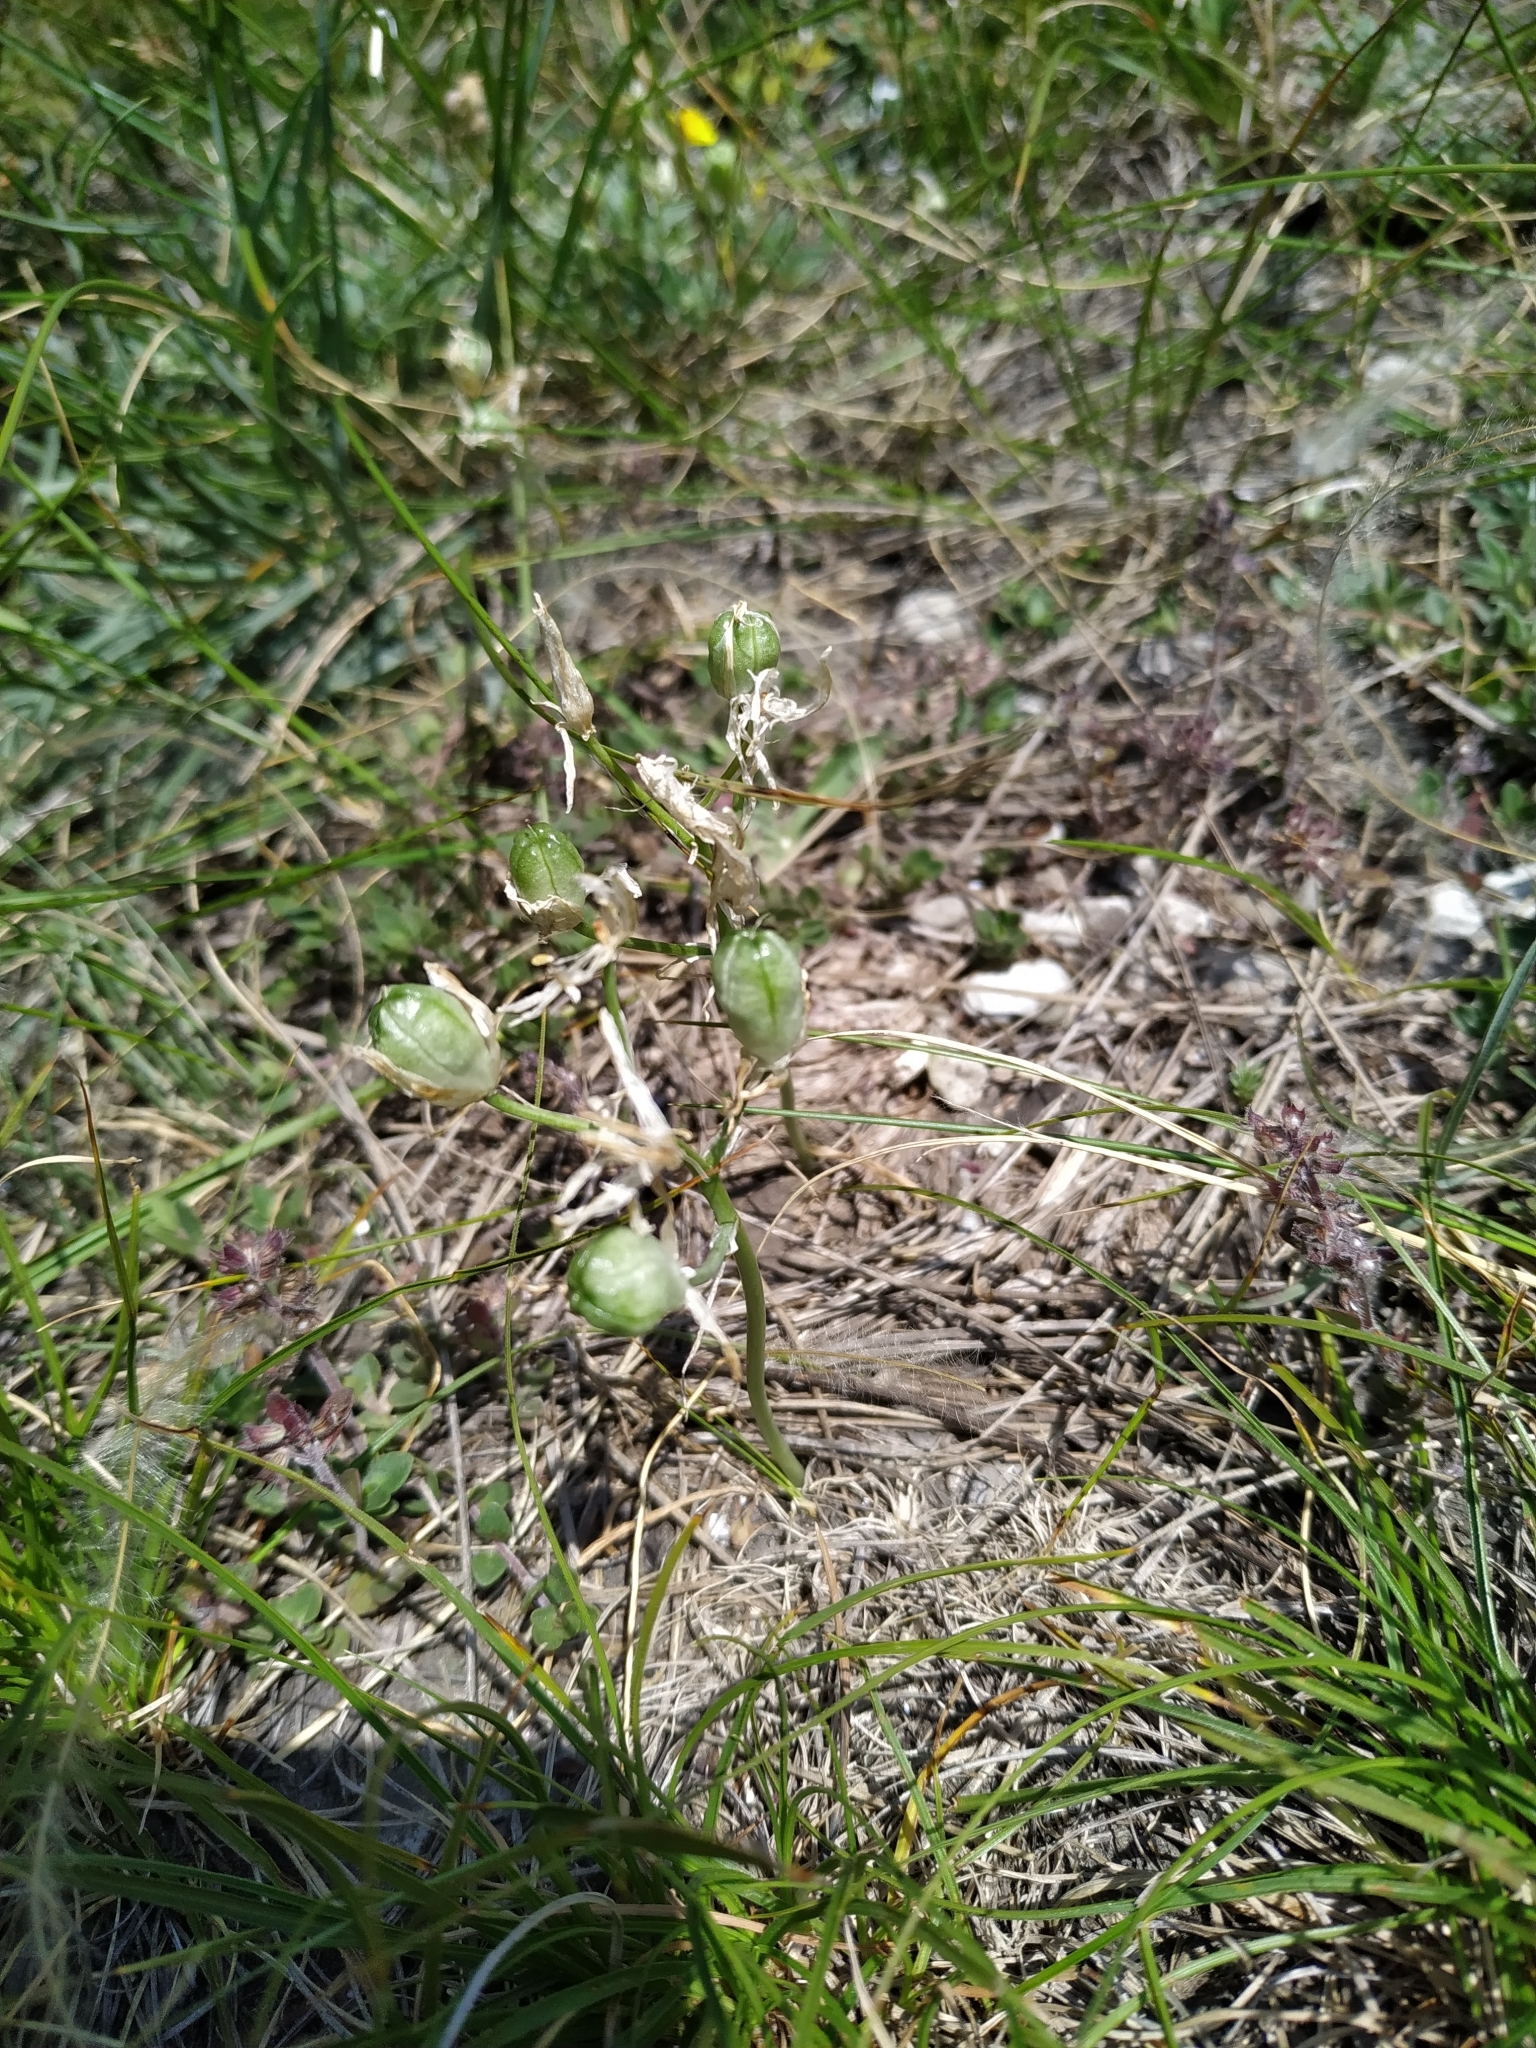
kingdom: Plantae
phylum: Tracheophyta
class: Liliopsida
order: Asparagales
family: Asparagaceae
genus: Ornithogalum
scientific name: Ornithogalum orthophyllum
